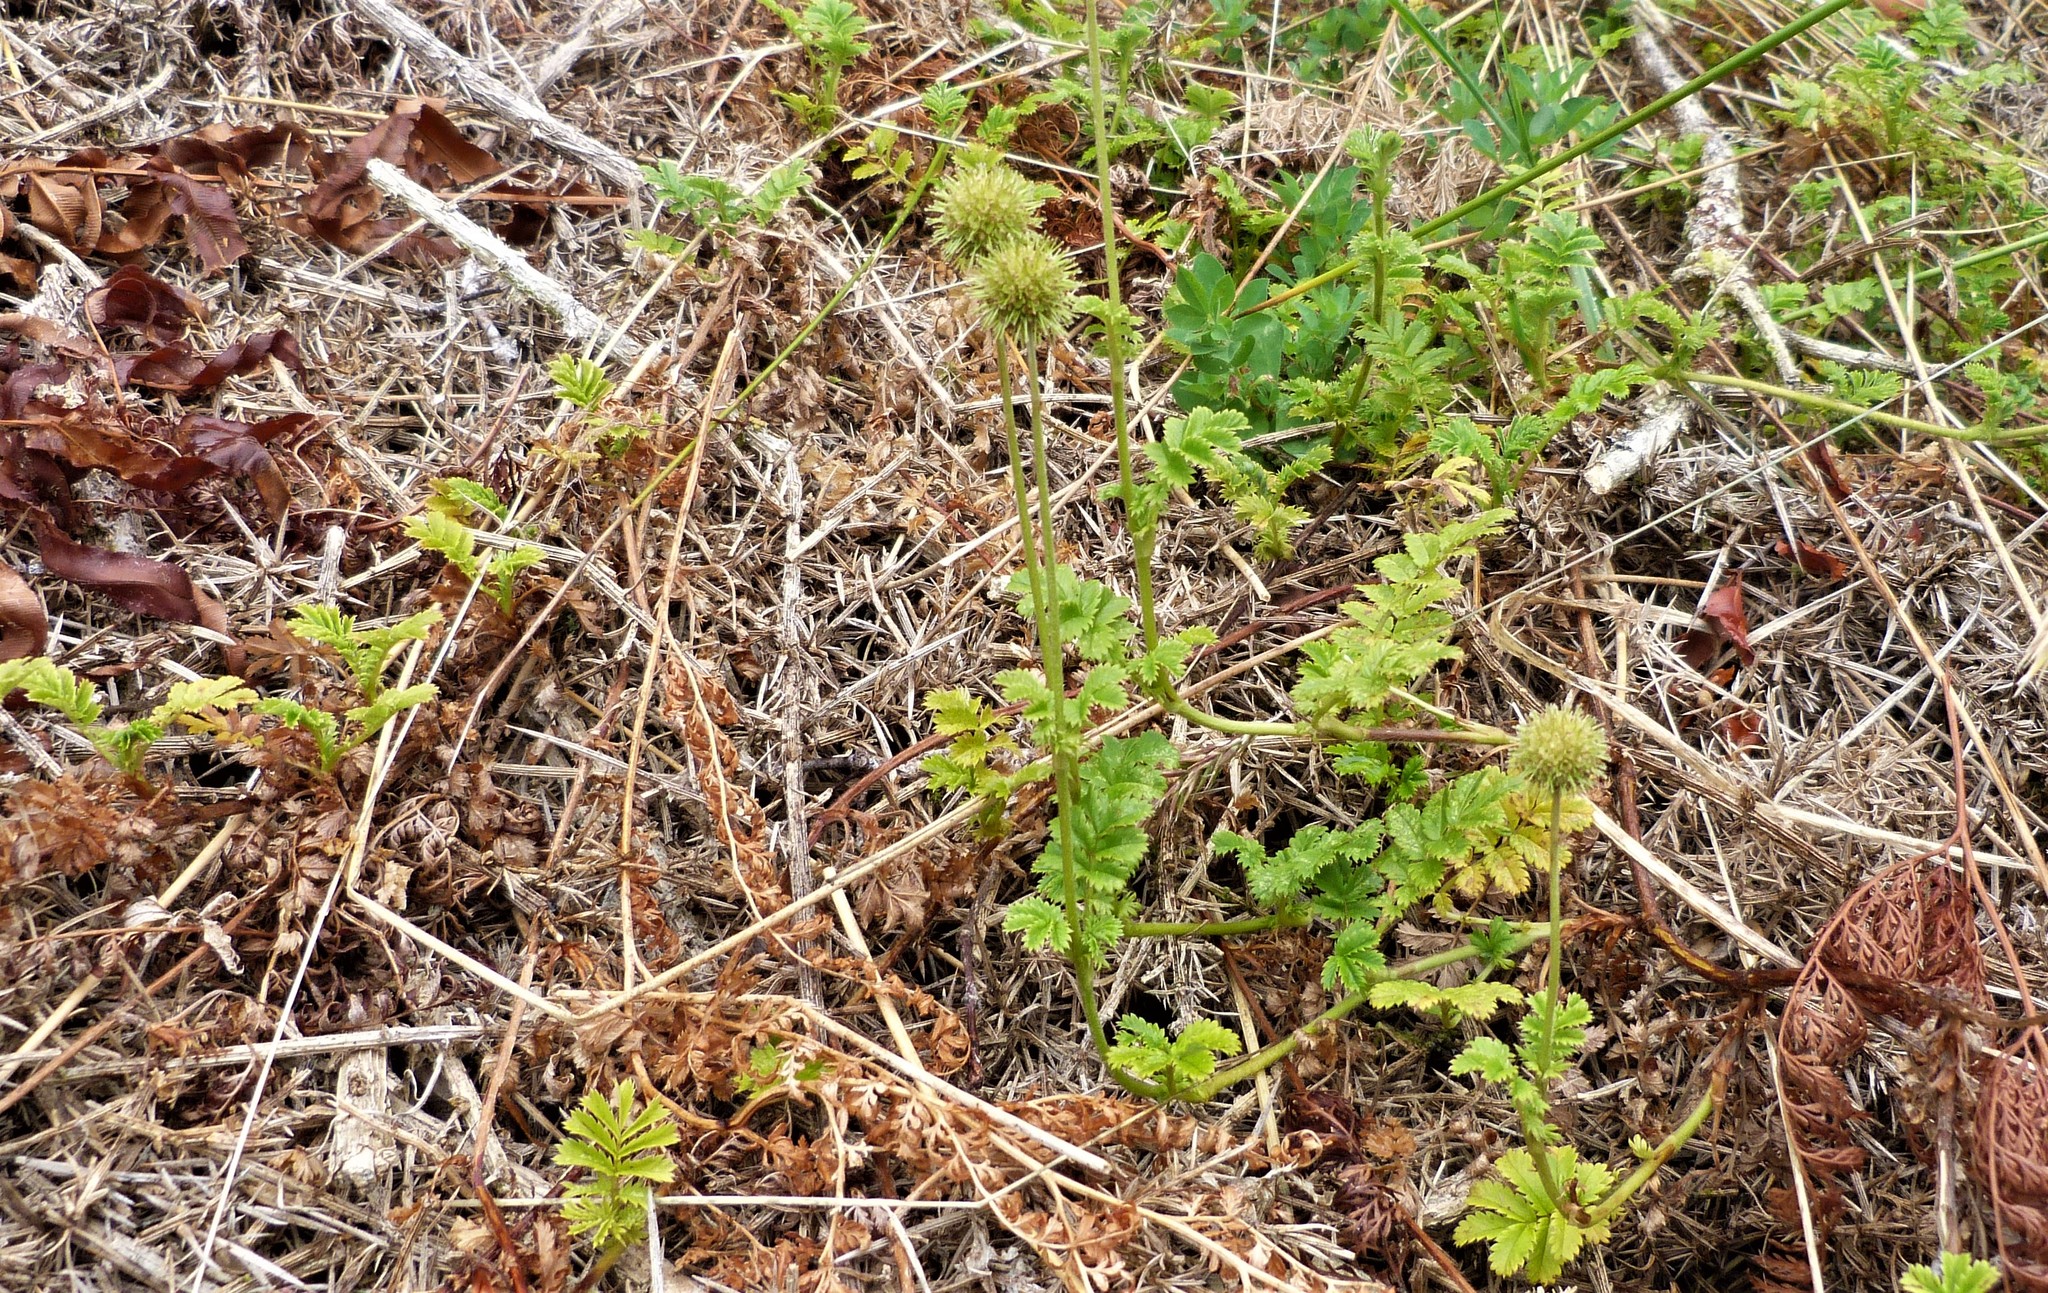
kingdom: Plantae
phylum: Tracheophyta
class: Magnoliopsida
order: Rosales
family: Rosaceae
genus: Acaena
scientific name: Acaena anserinifolia
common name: Bronze pirri-pirri-bur
